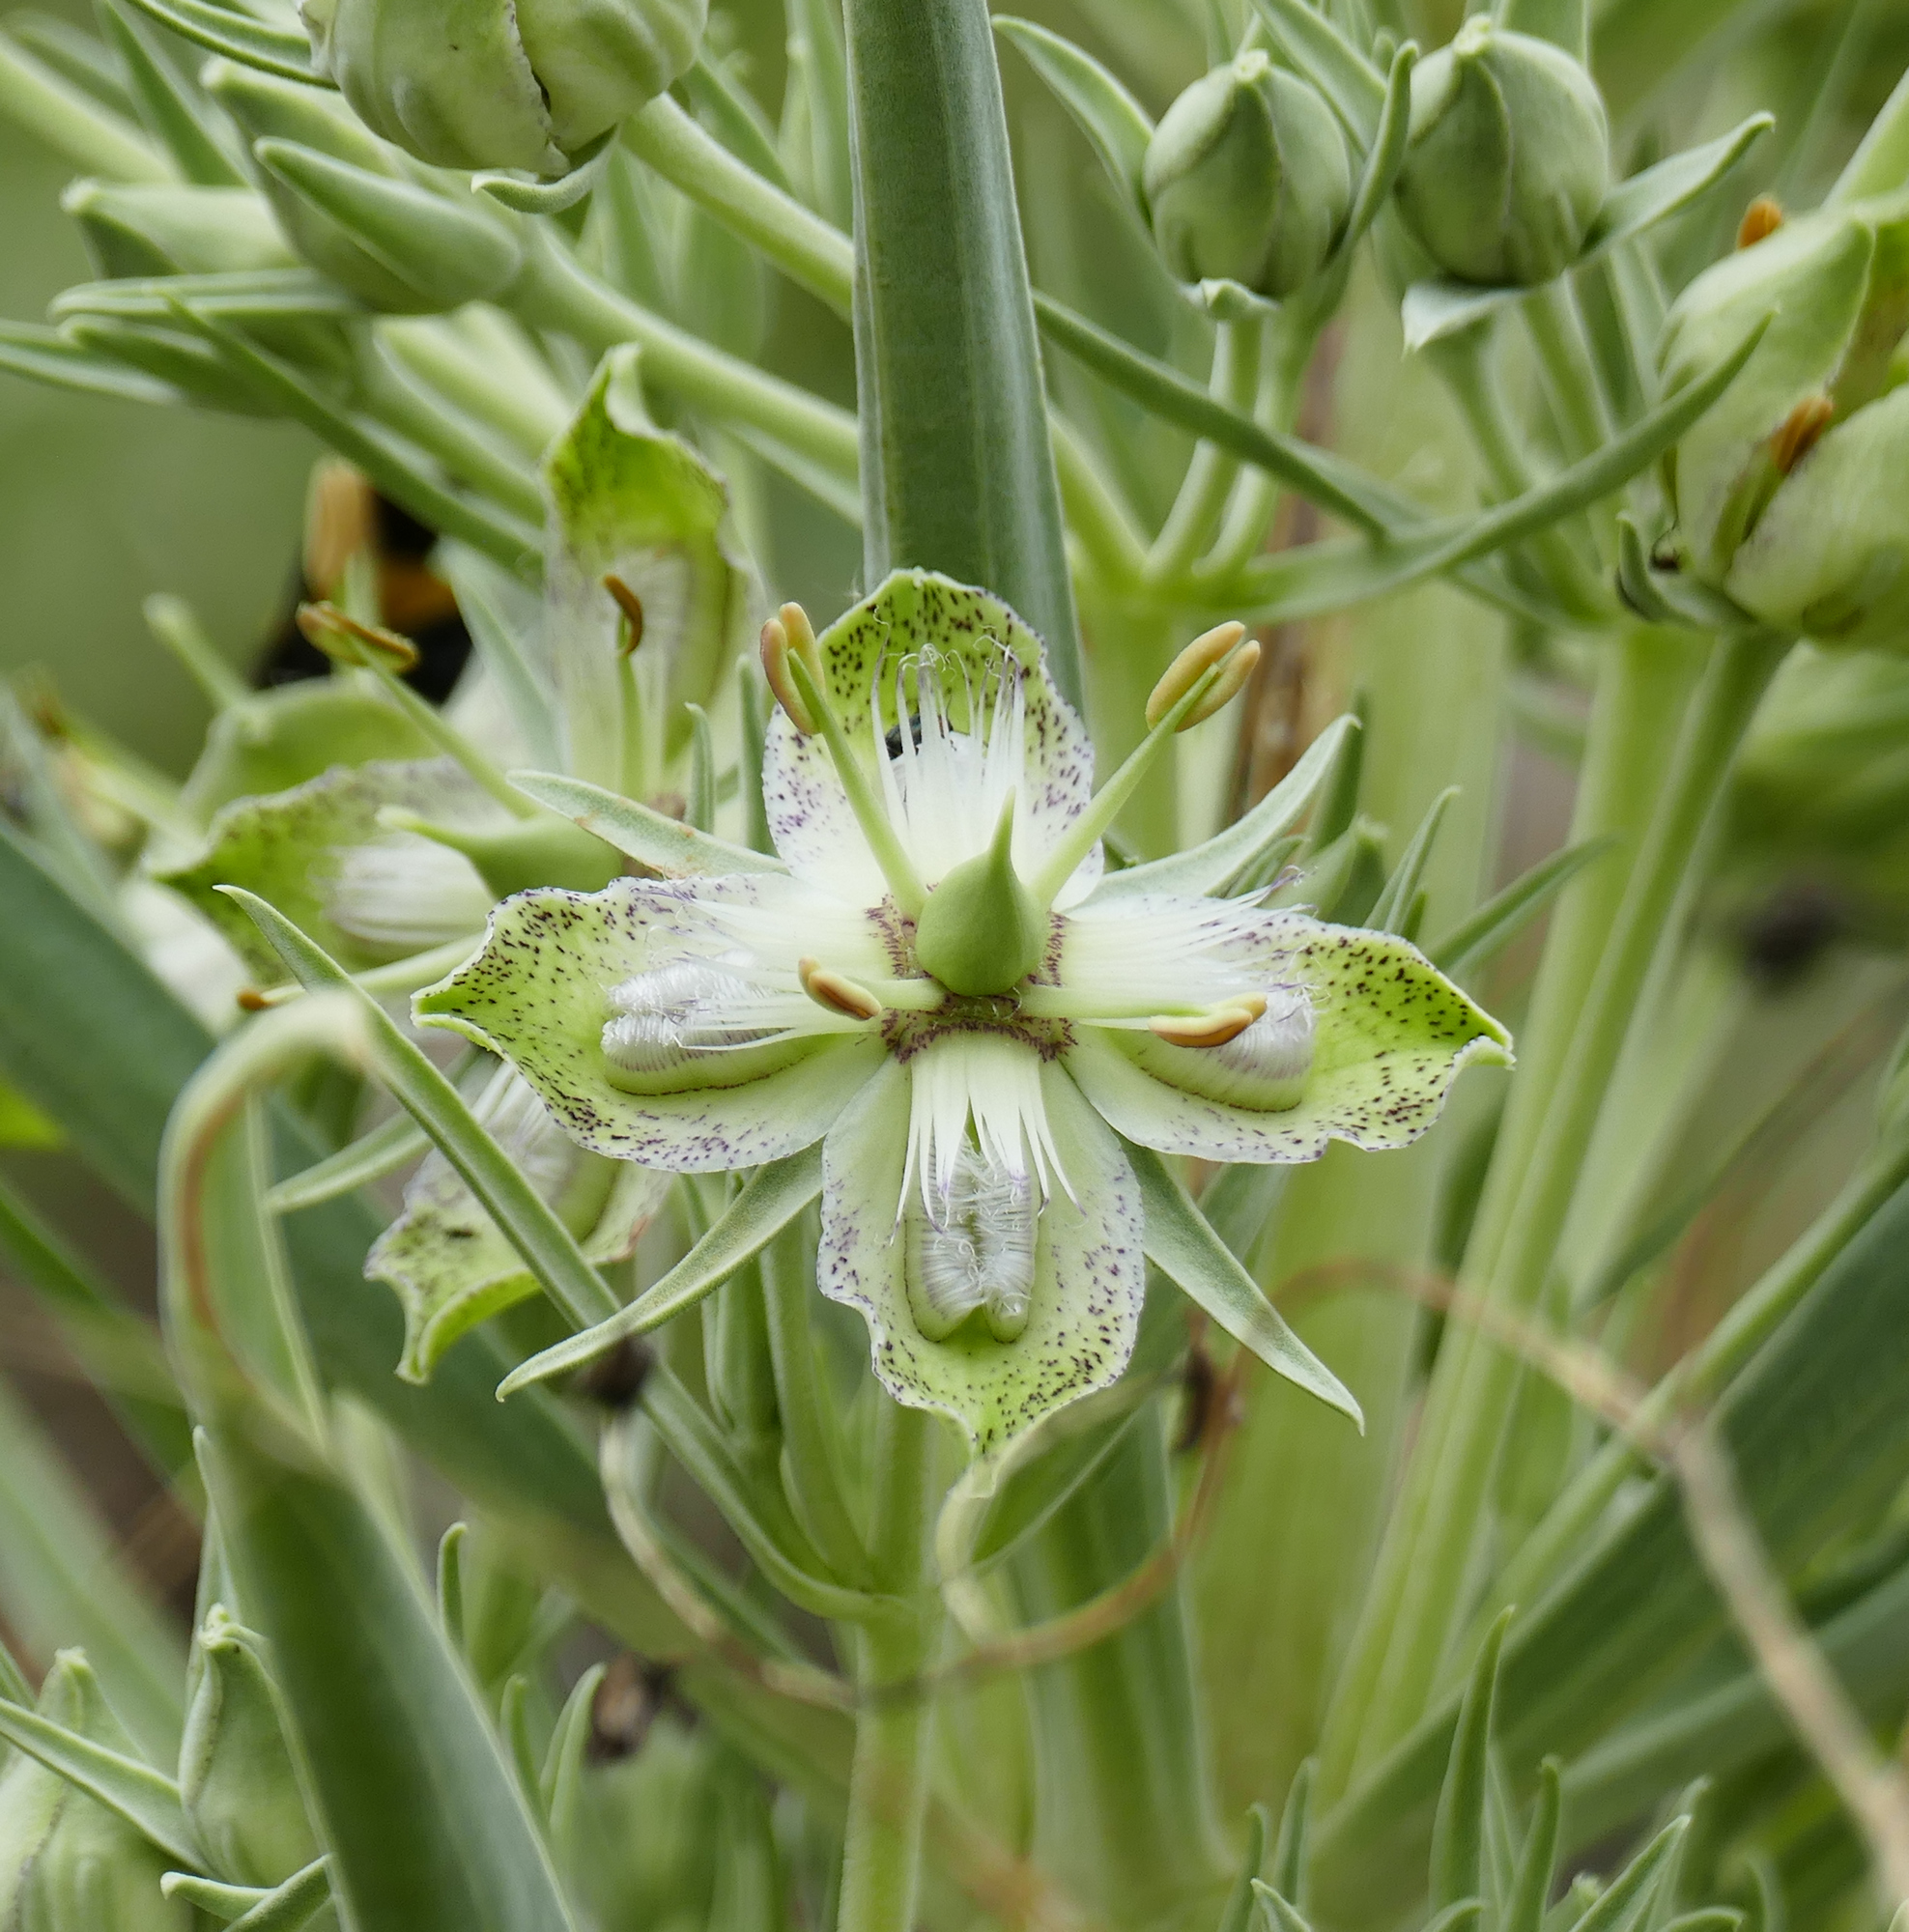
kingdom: Plantae
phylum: Tracheophyta
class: Magnoliopsida
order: Gentianales
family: Gentianaceae
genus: Frasera
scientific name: Frasera speciosa
